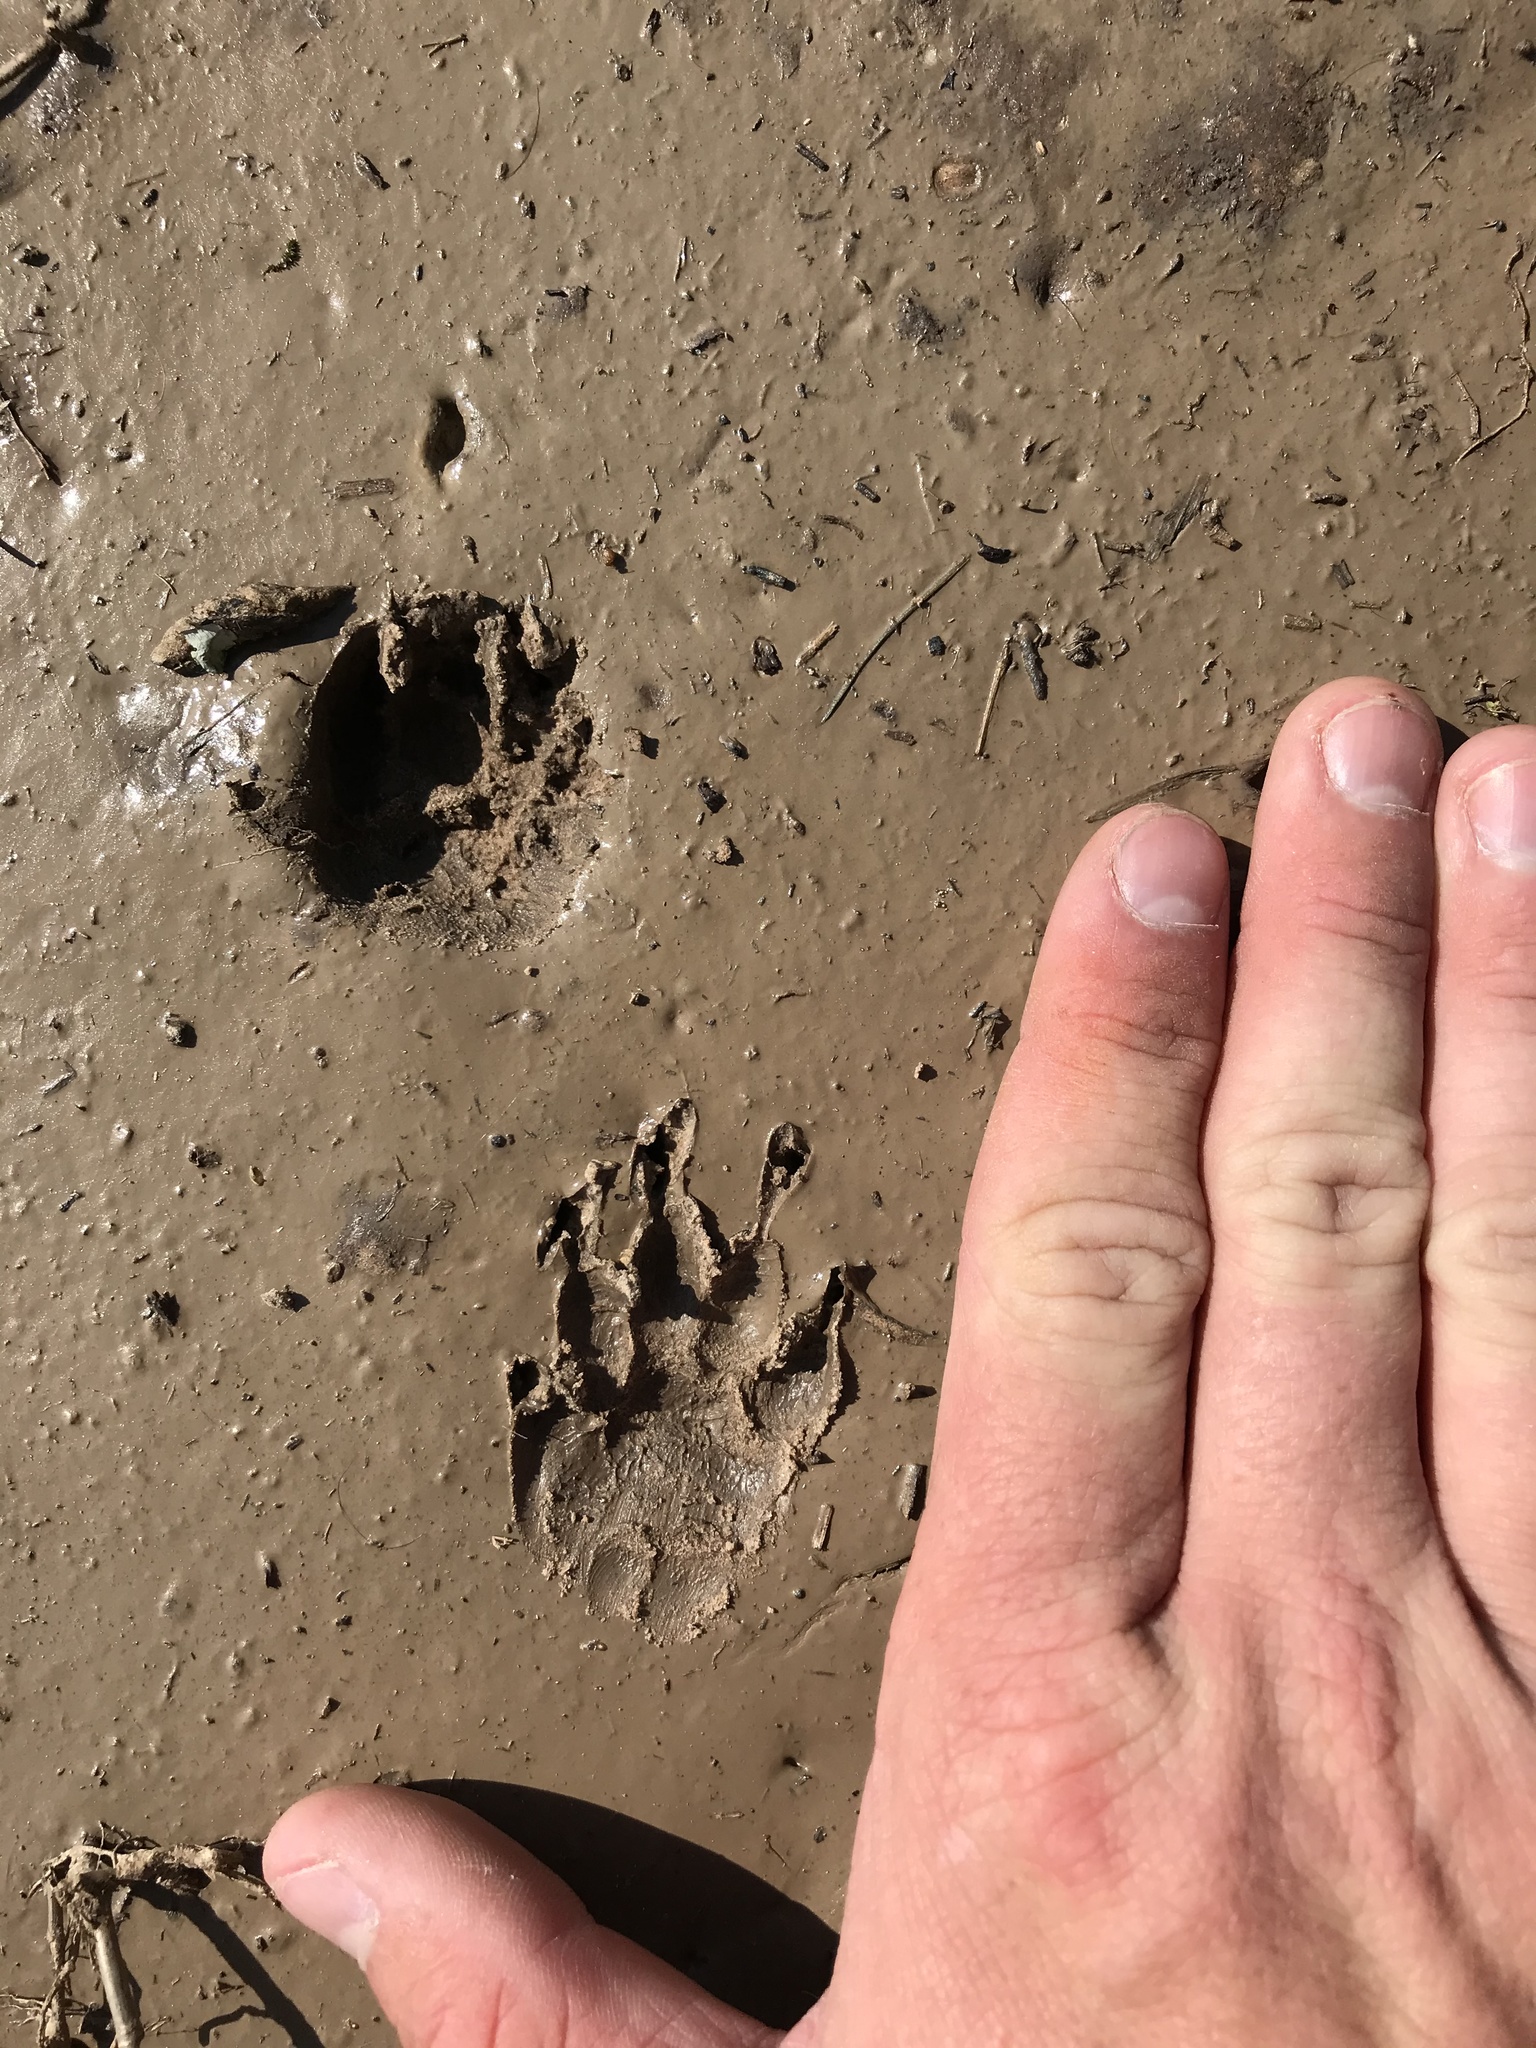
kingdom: Animalia
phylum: Chordata
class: Mammalia
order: Carnivora
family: Mephitidae
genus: Mephitis
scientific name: Mephitis mephitis
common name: Striped skunk
